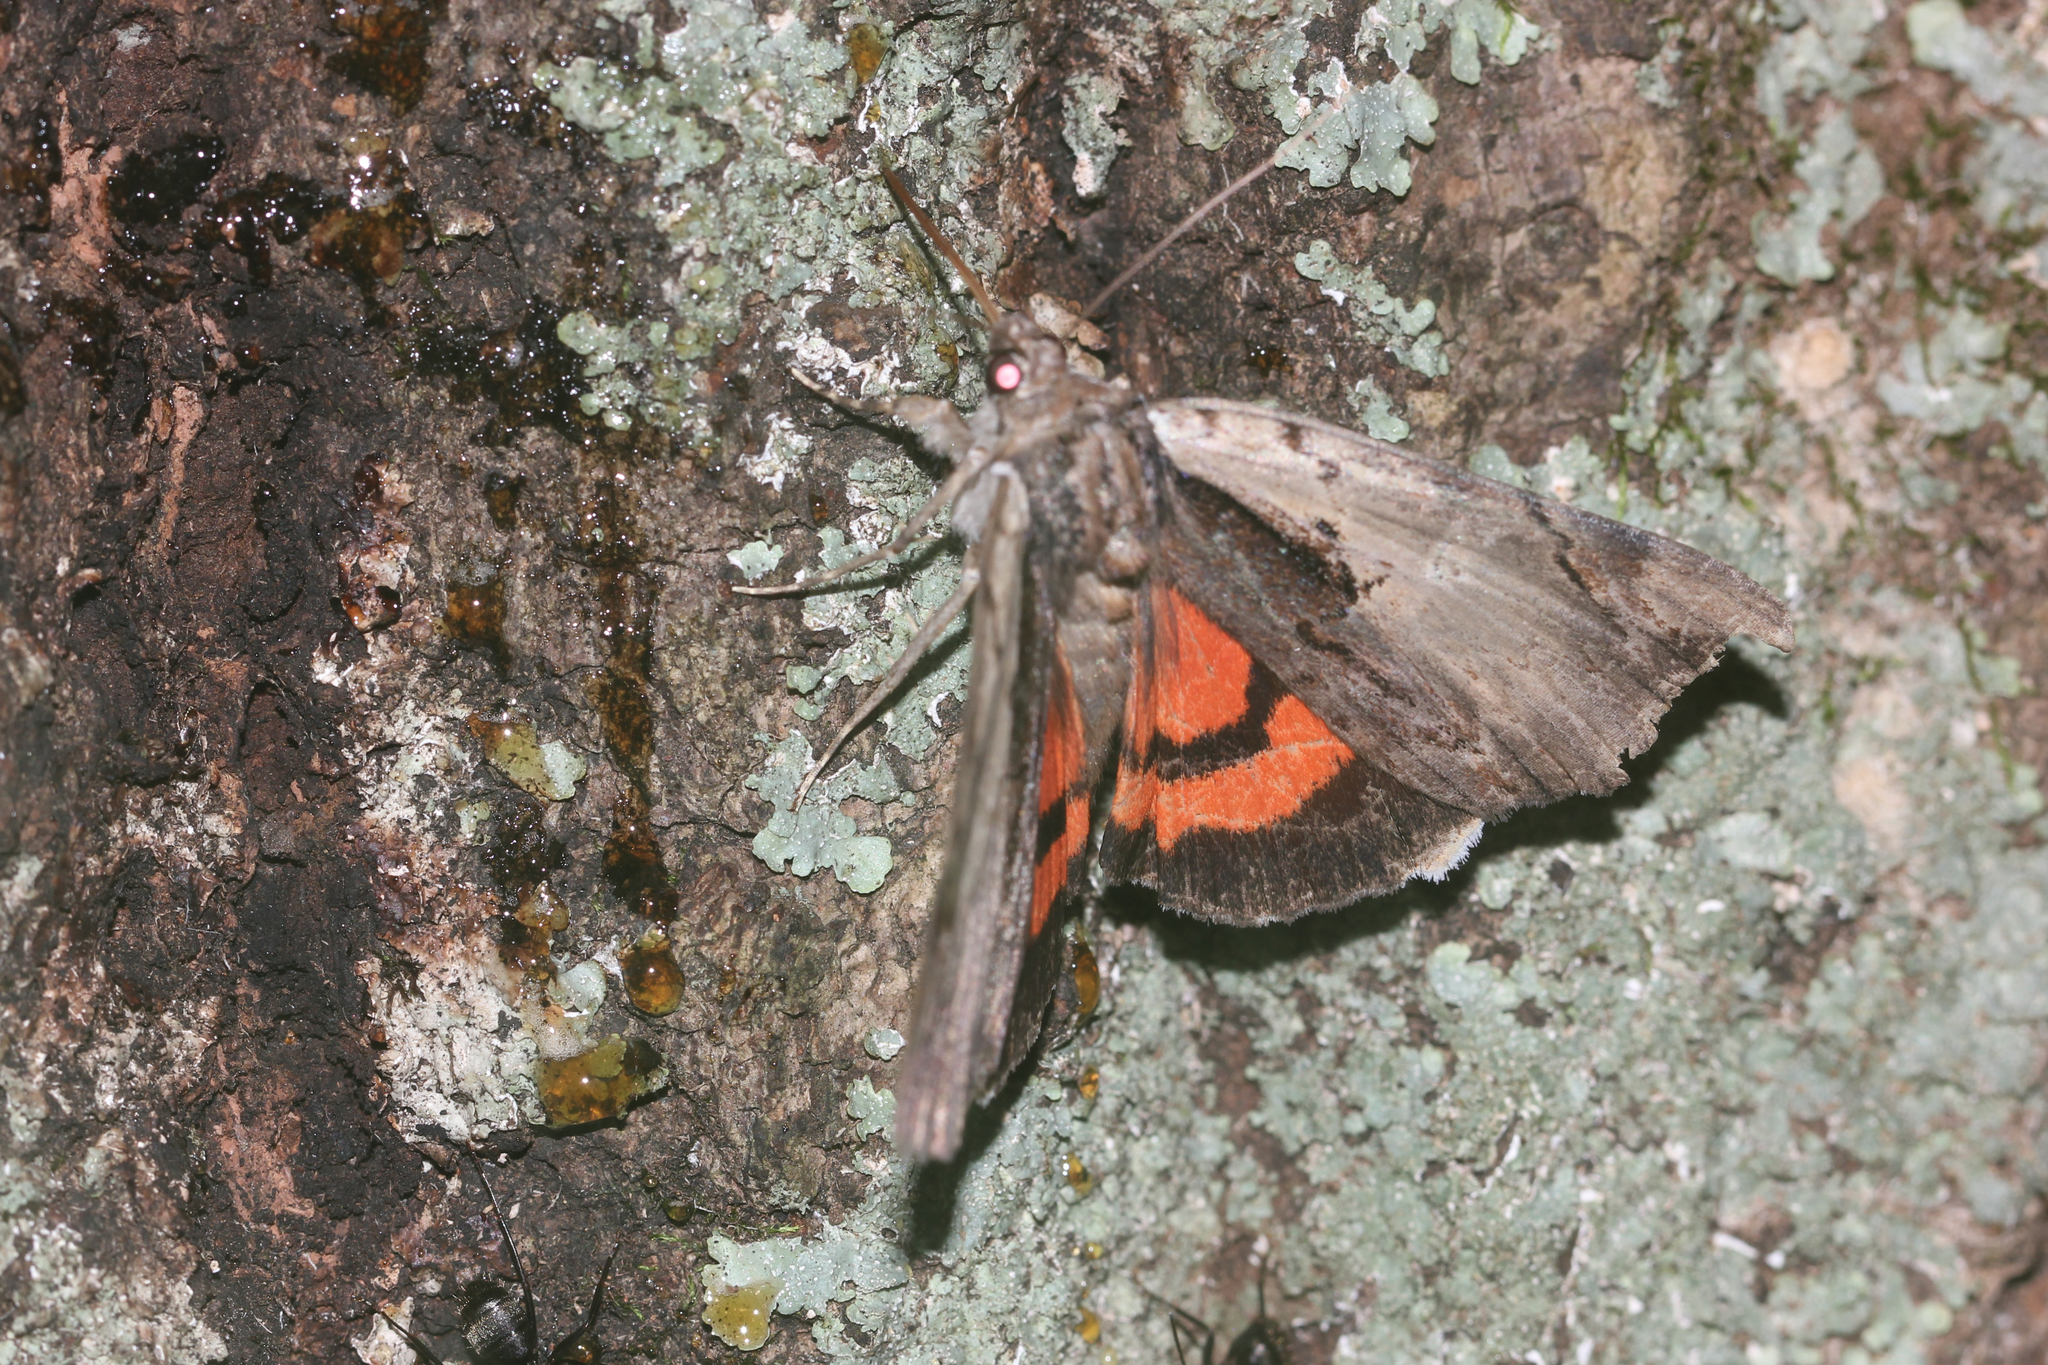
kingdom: Animalia
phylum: Arthropoda
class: Insecta
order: Lepidoptera
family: Erebidae
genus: Catocala
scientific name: Catocala ultronia
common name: Ultronia underwing
